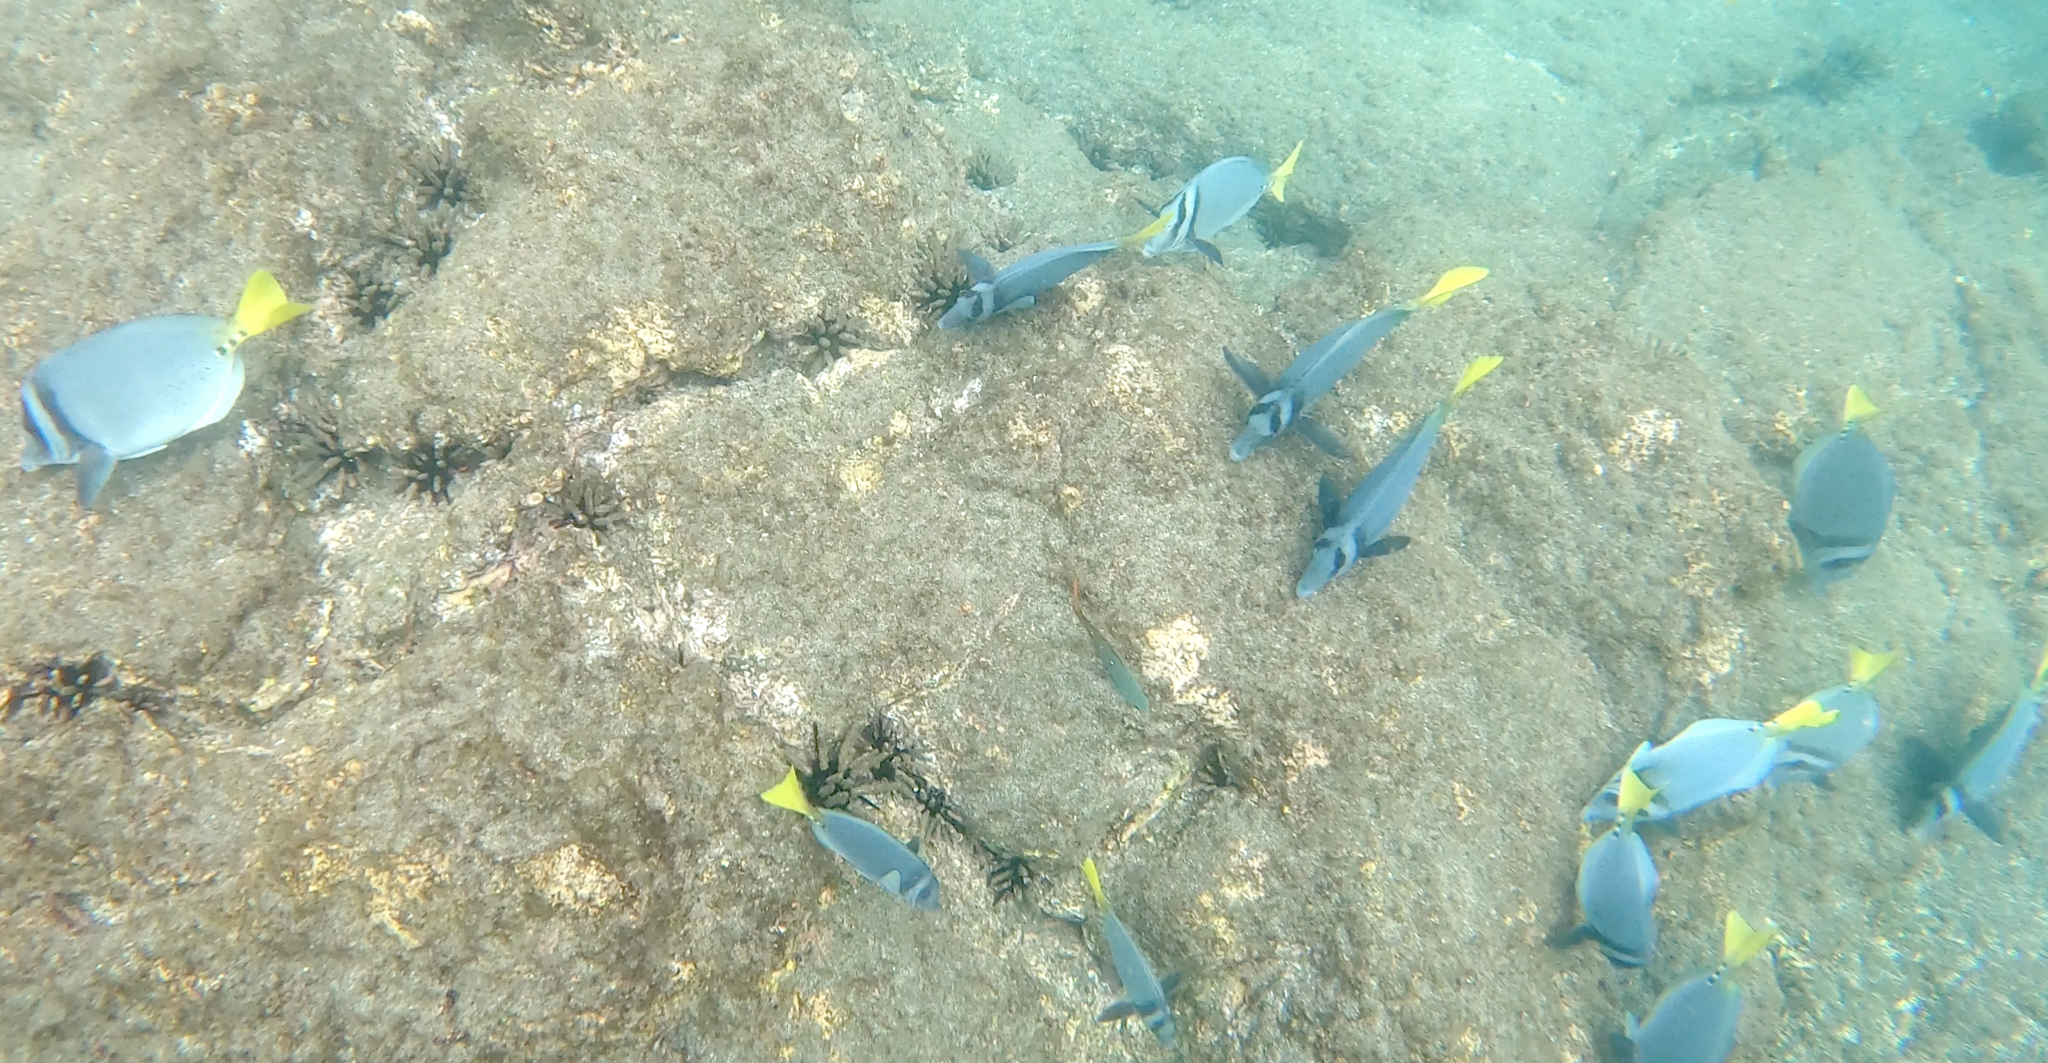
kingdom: Animalia
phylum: Chordata
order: Perciformes
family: Acanthuridae
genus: Prionurus
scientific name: Prionurus laticlavius
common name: Razor surgeonfish
